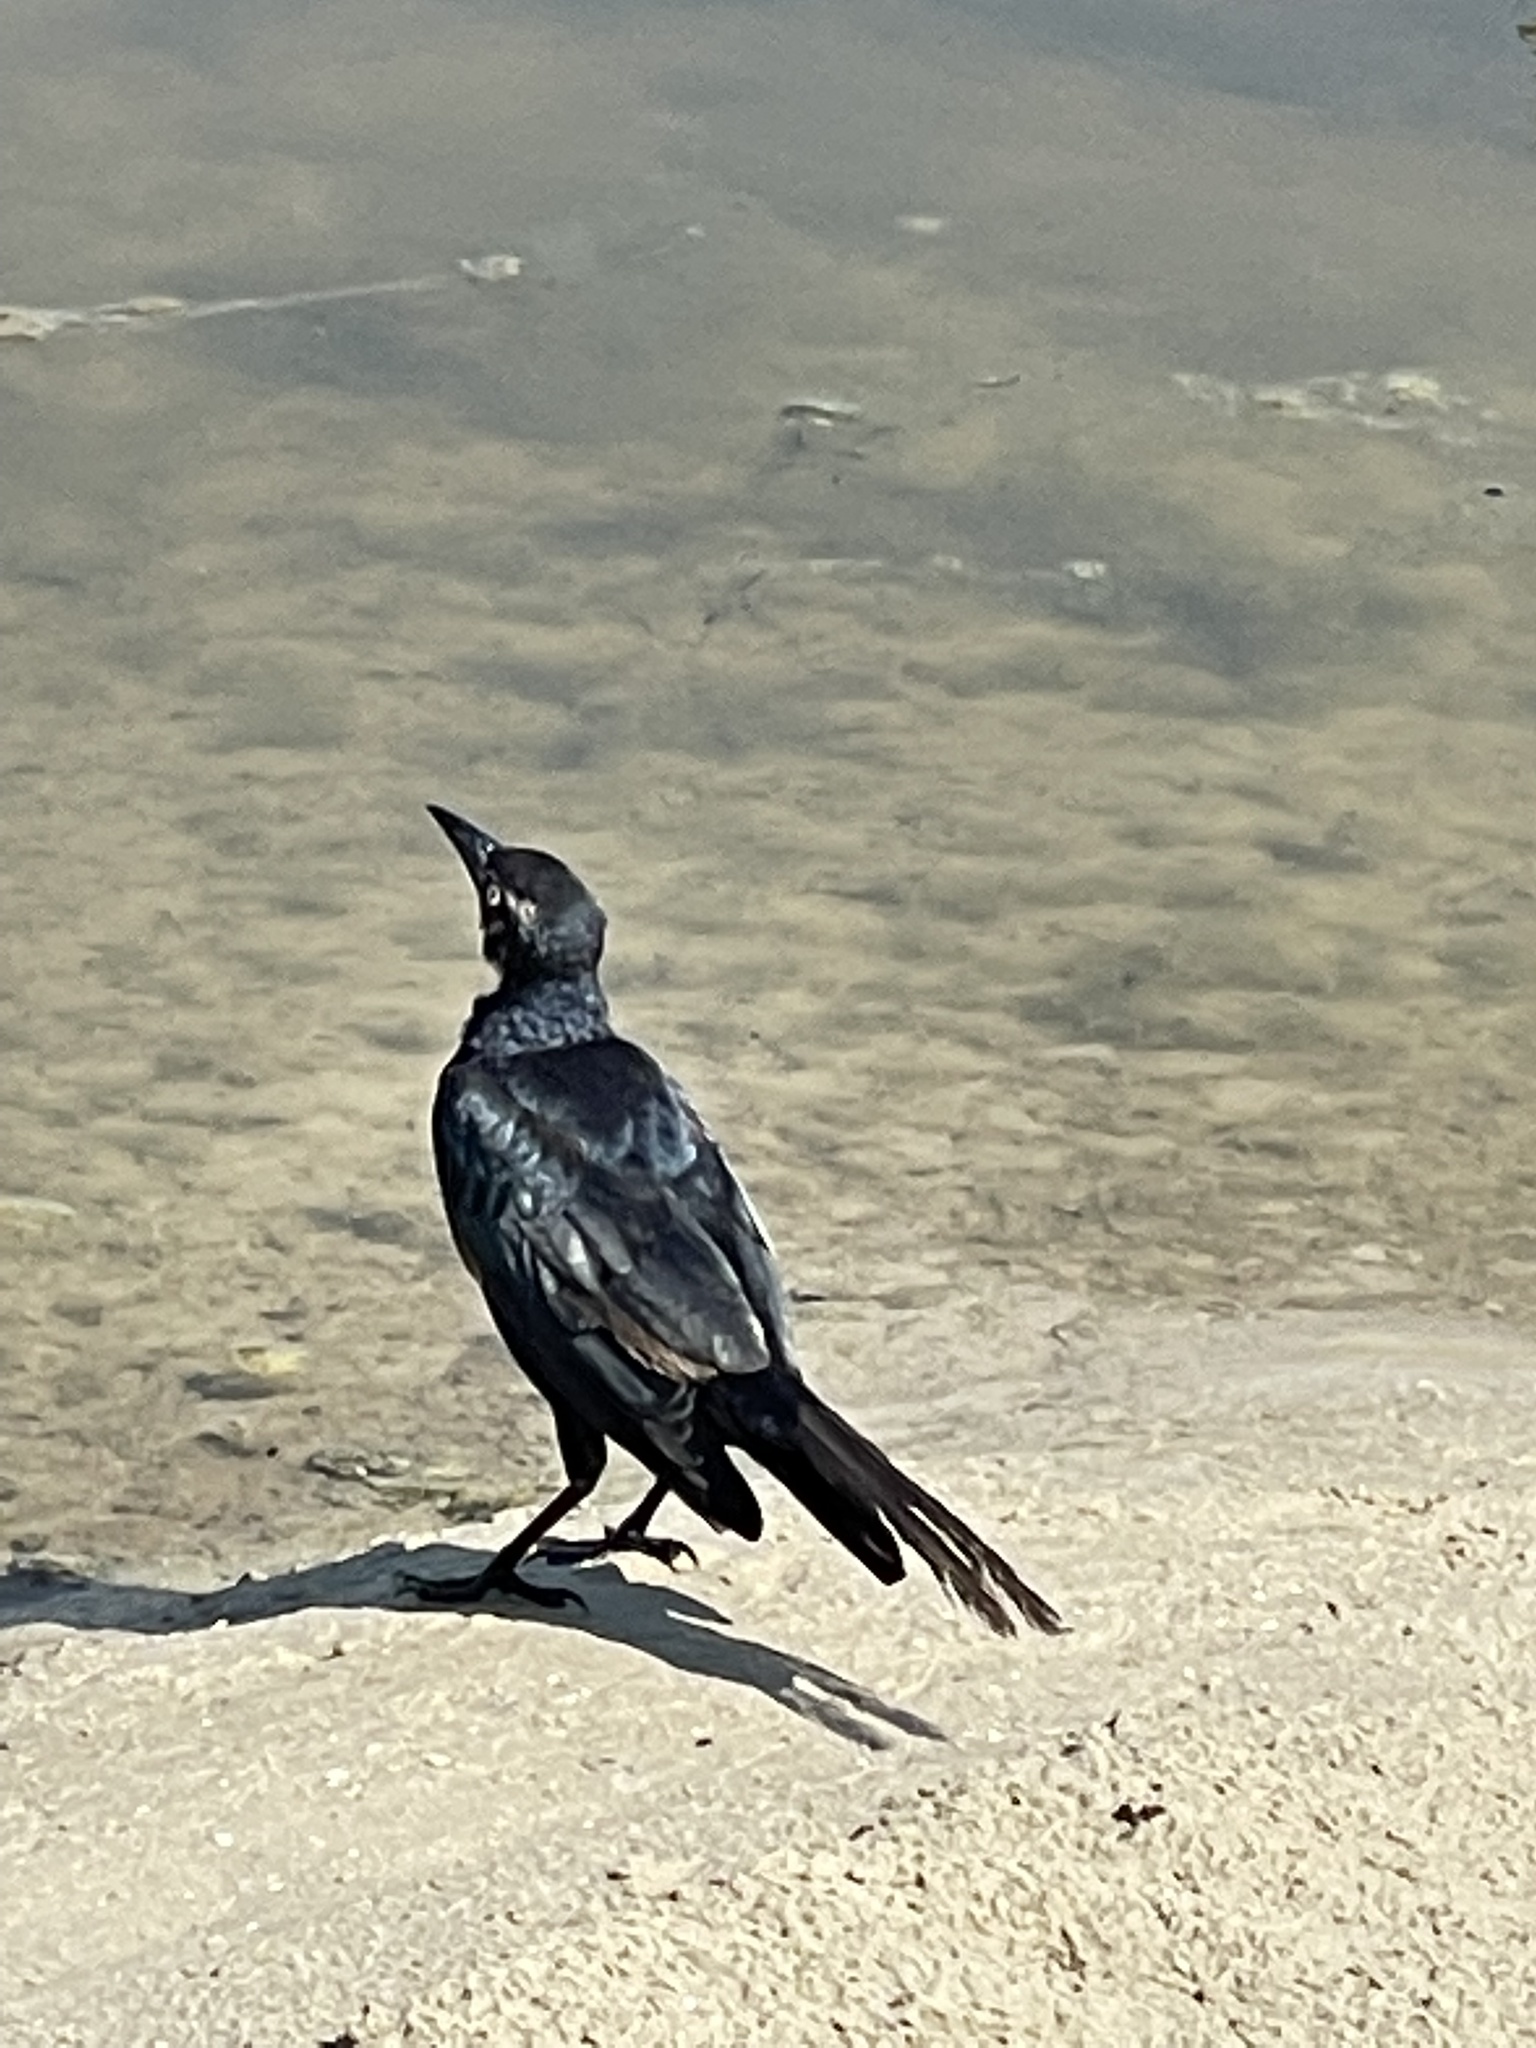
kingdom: Animalia
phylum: Chordata
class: Aves
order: Passeriformes
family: Icteridae
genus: Quiscalus
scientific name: Quiscalus mexicanus
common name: Great-tailed grackle
